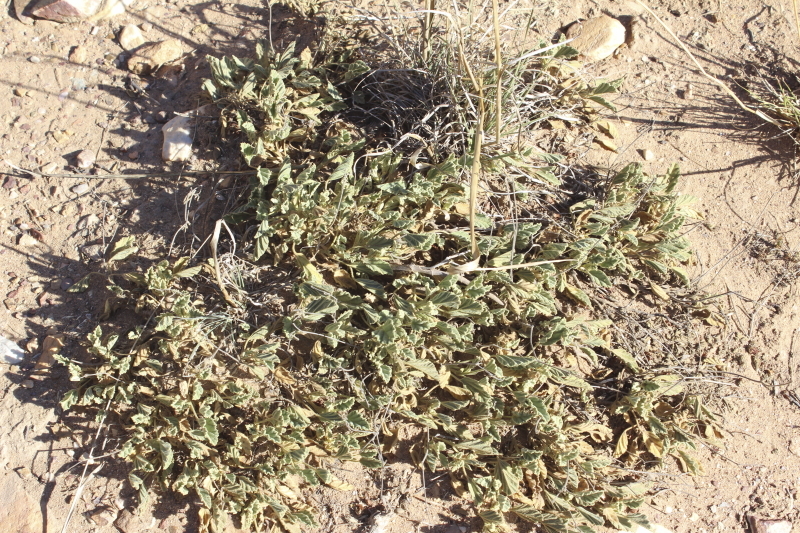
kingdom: Plantae
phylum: Tracheophyta
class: Magnoliopsida
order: Geraniales
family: Geraniaceae
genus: Pelargonium
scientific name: Pelargonium ovale
